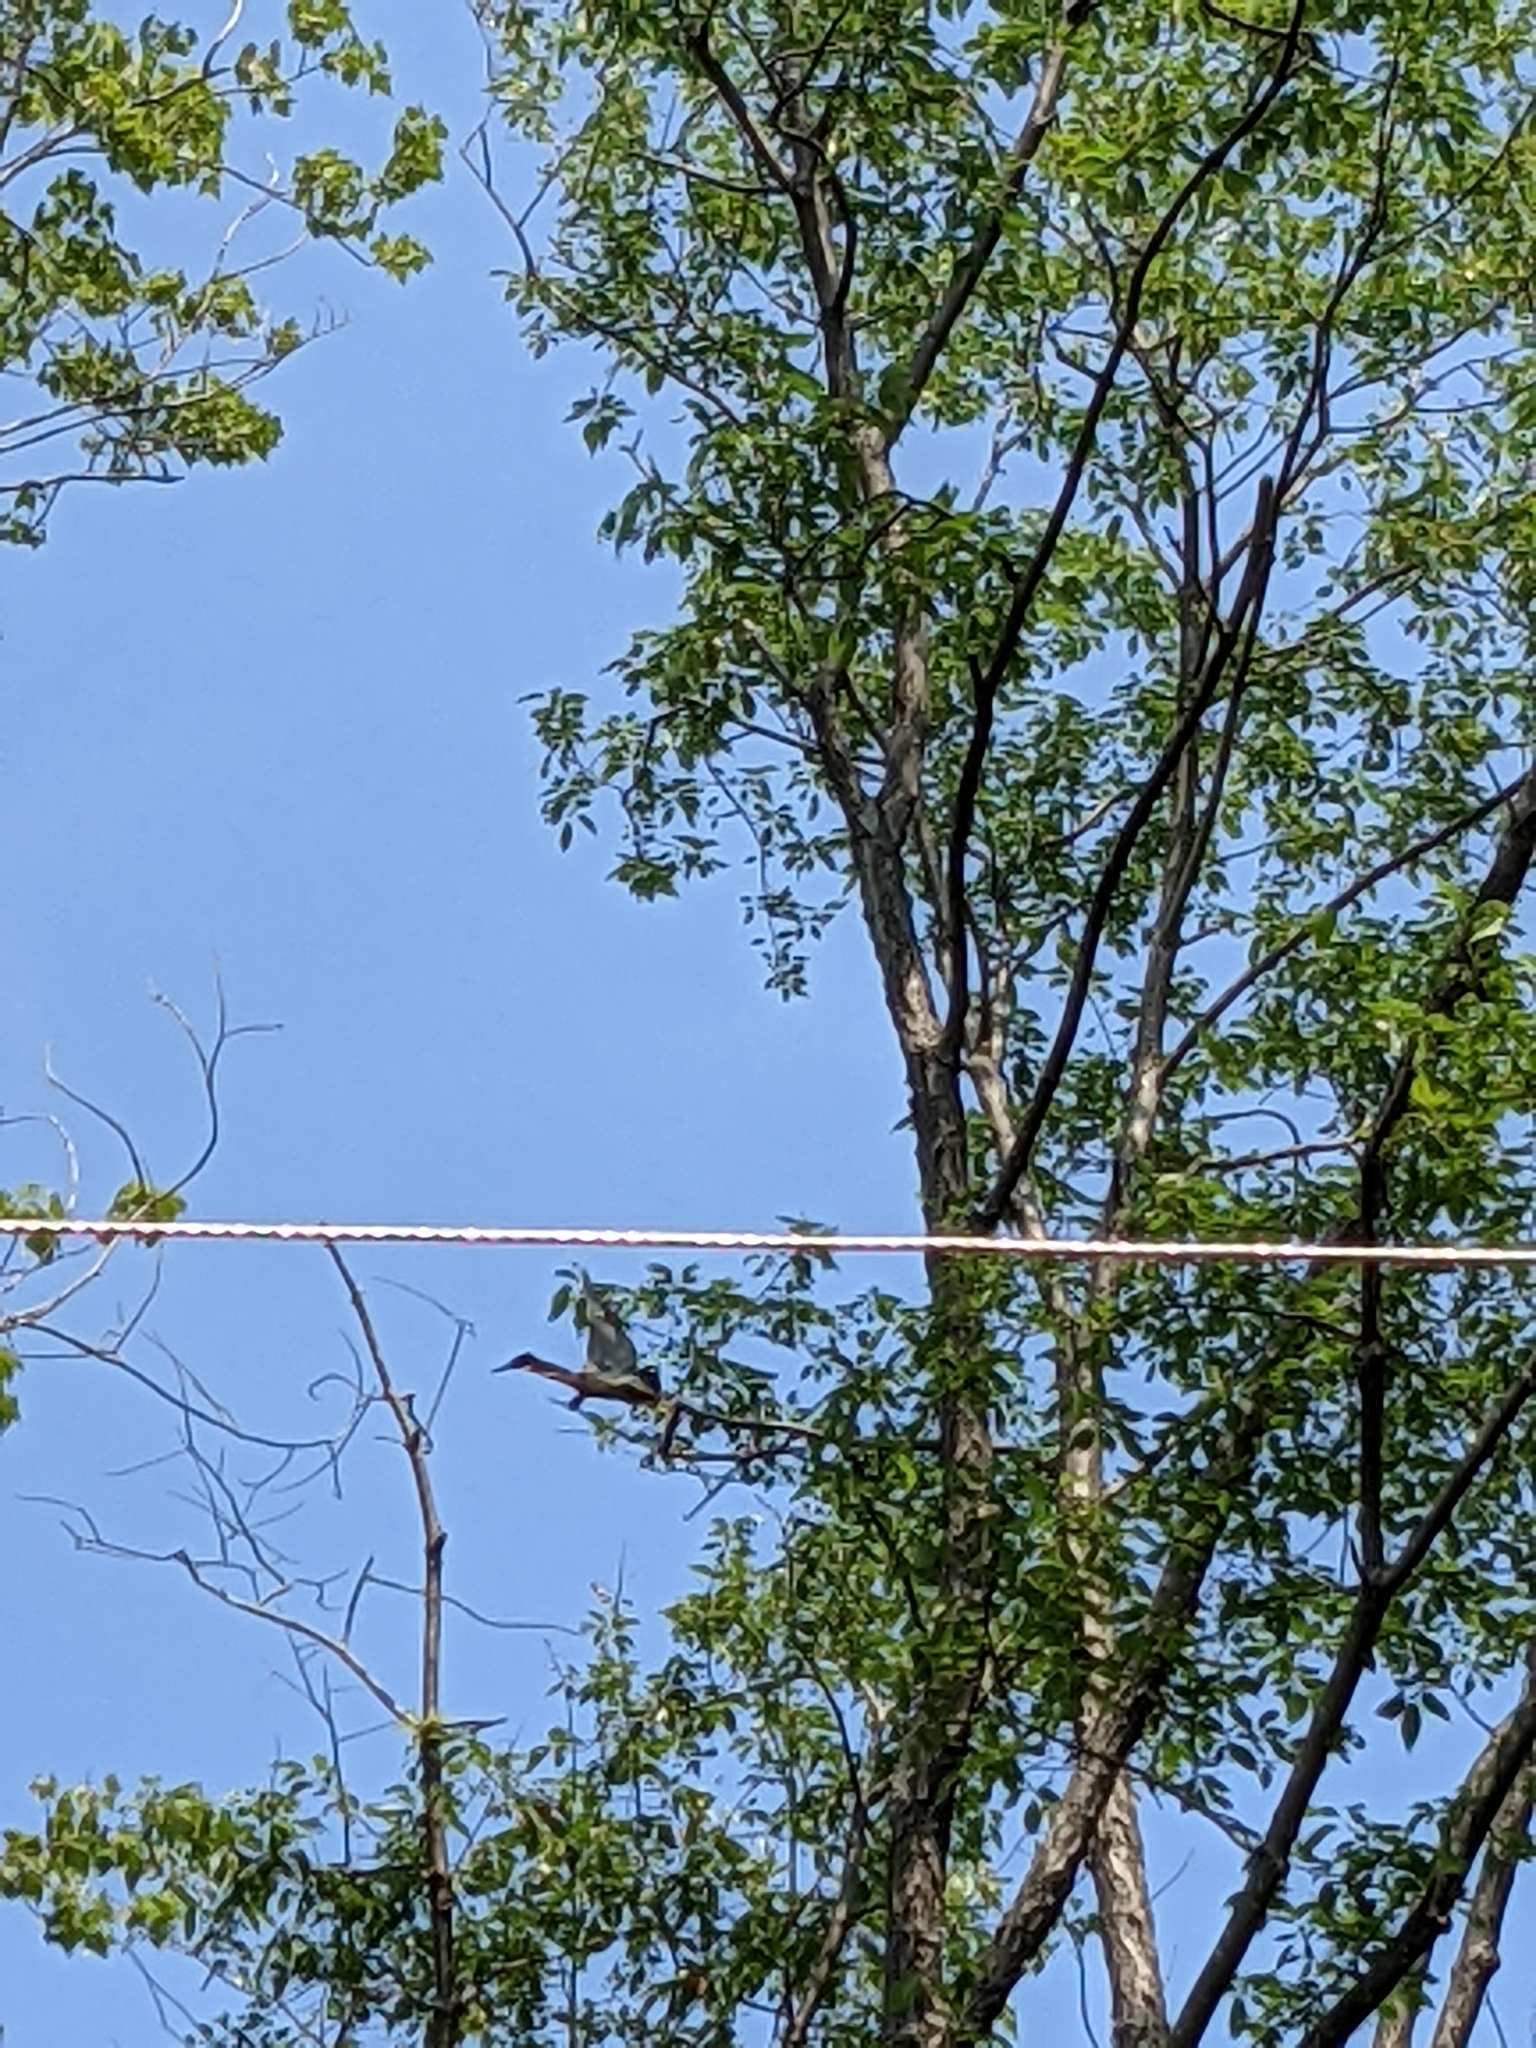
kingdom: Animalia
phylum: Chordata
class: Aves
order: Pelecaniformes
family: Ardeidae
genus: Butorides
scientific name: Butorides virescens
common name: Green heron
